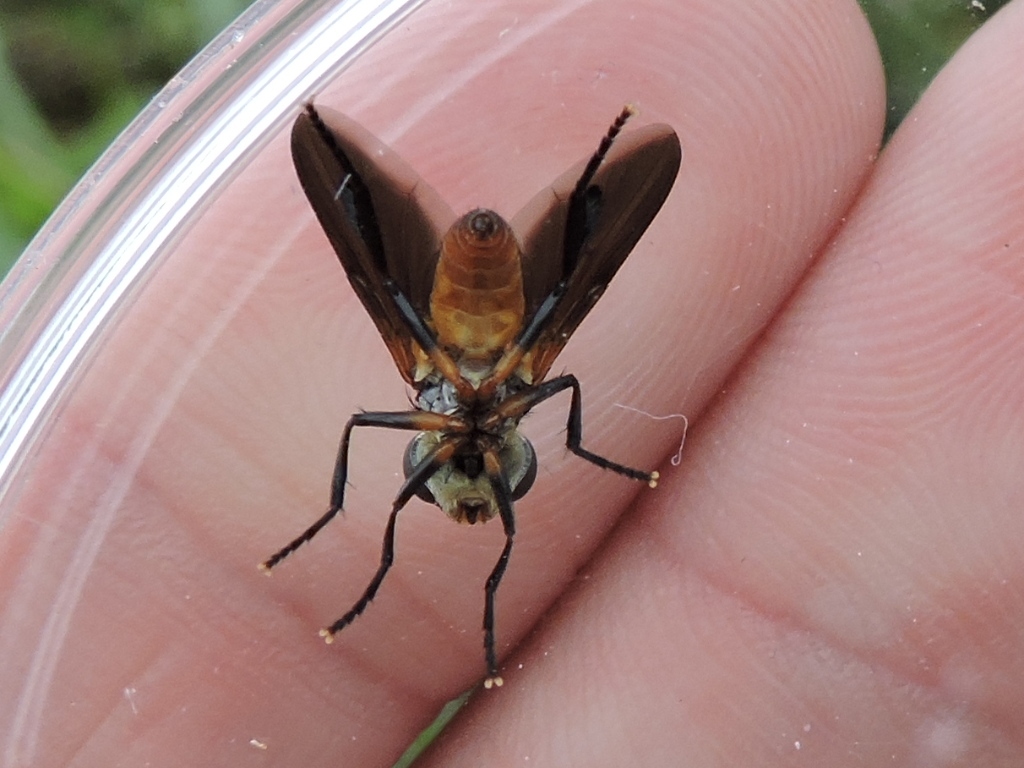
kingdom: Animalia
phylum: Arthropoda
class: Insecta
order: Diptera
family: Tachinidae
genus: Trichopoda
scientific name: Trichopoda pennipes
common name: Tachinid fly
